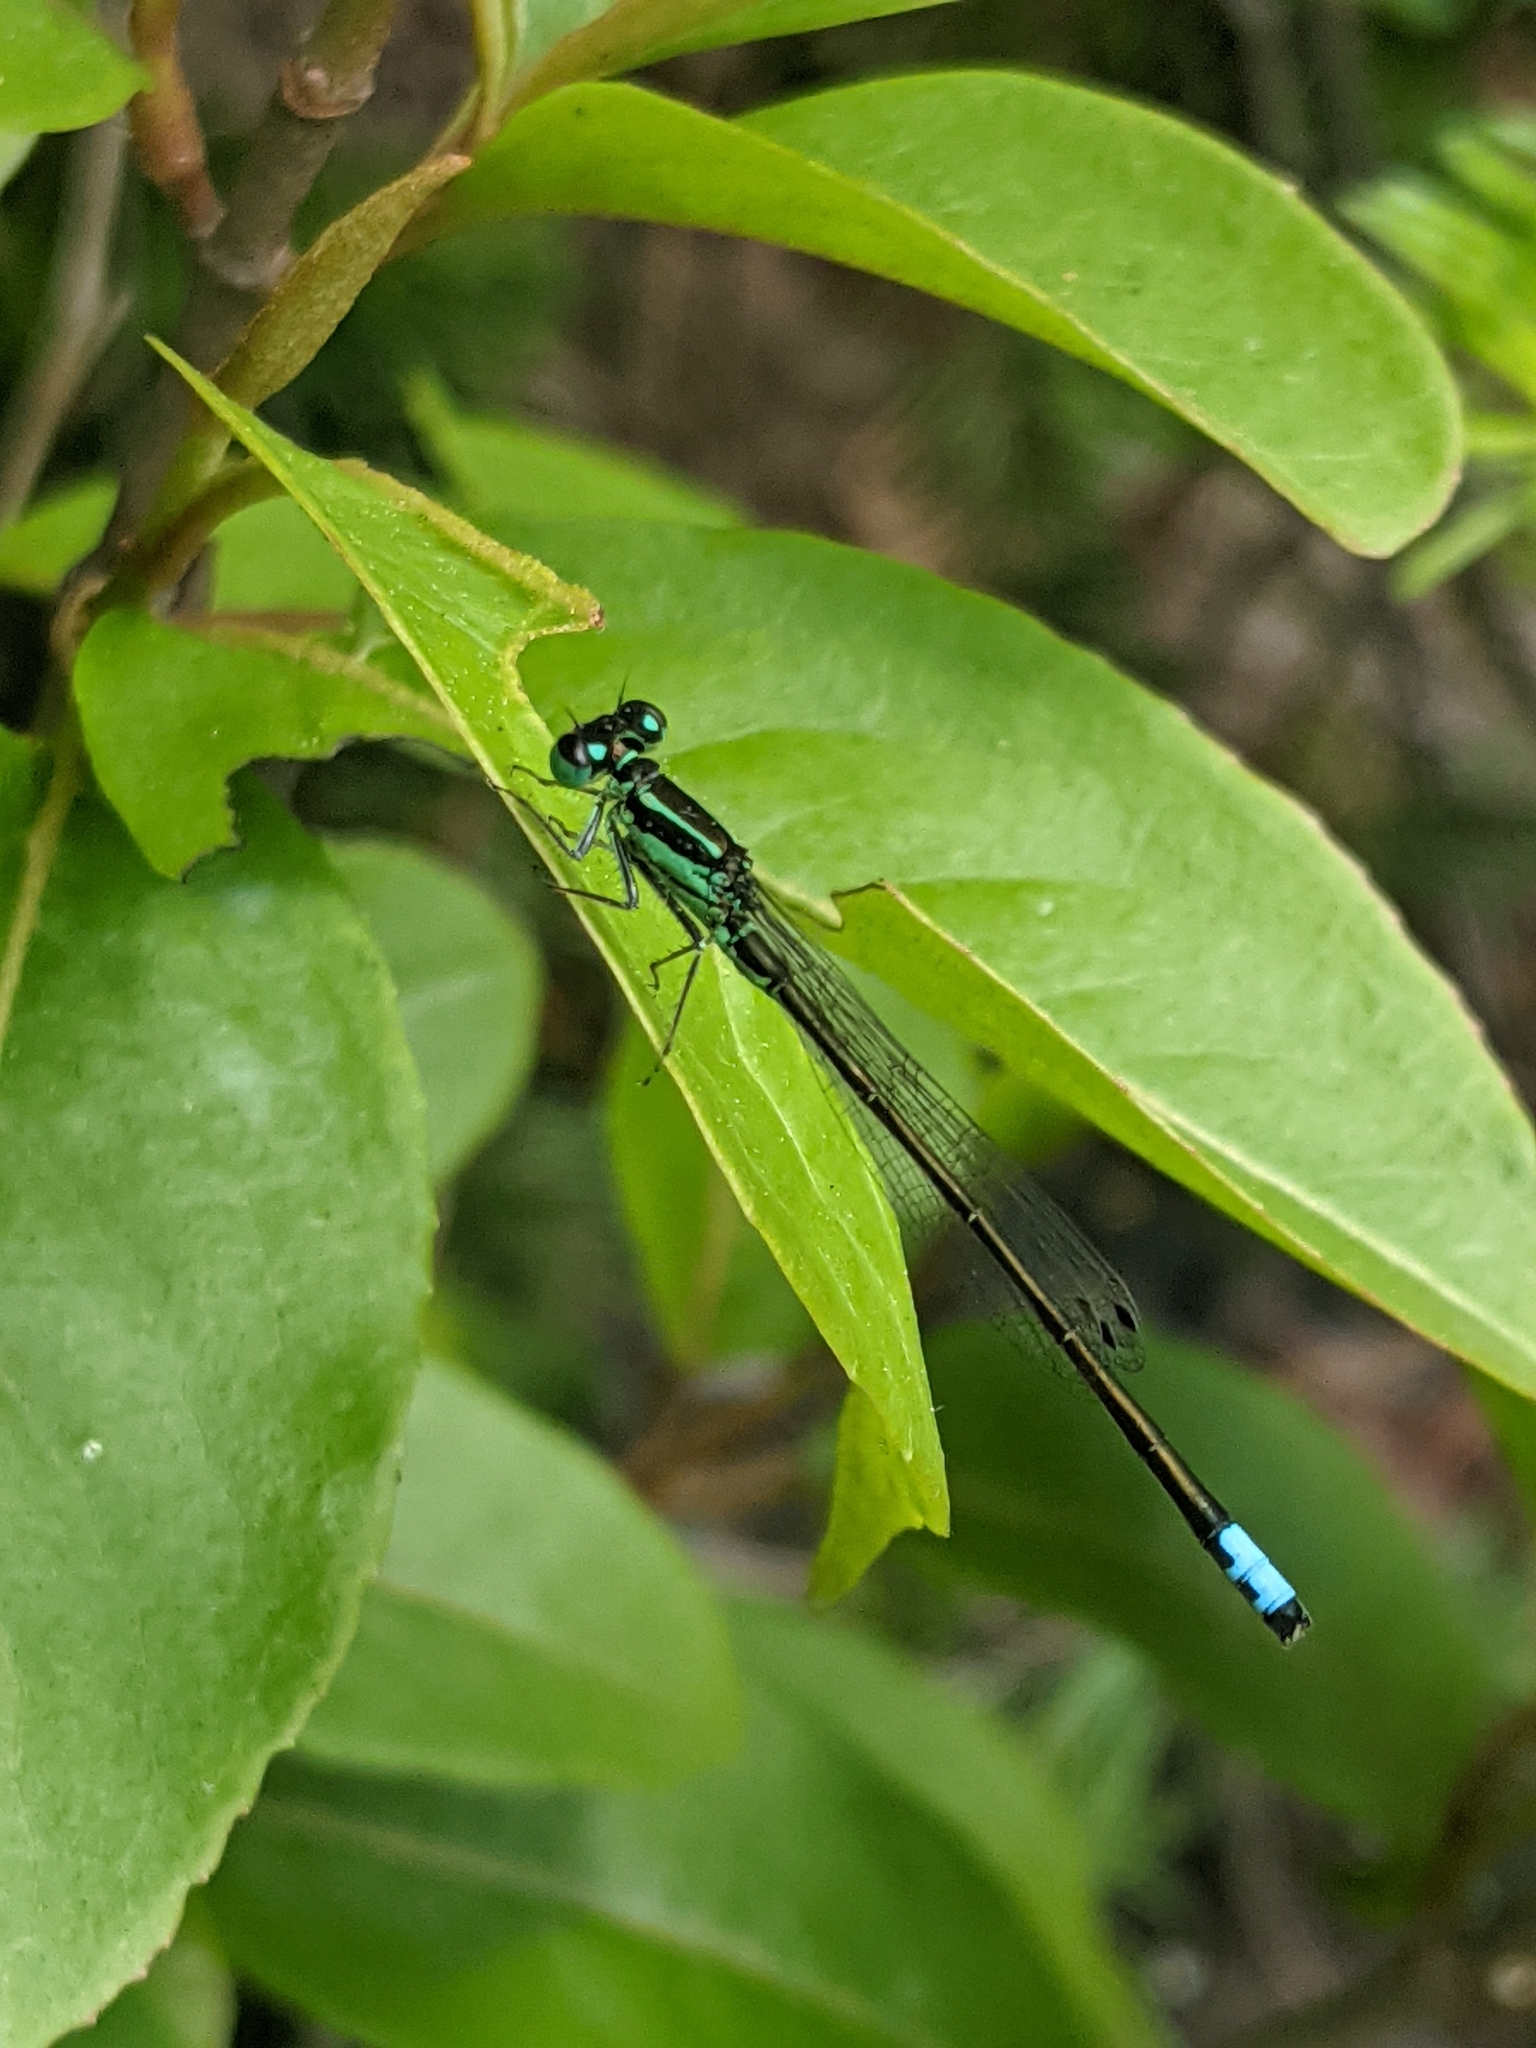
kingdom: Animalia
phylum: Arthropoda
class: Insecta
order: Odonata
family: Coenagrionidae
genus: Ischnura
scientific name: Ischnura verticalis
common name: Eastern forktail
